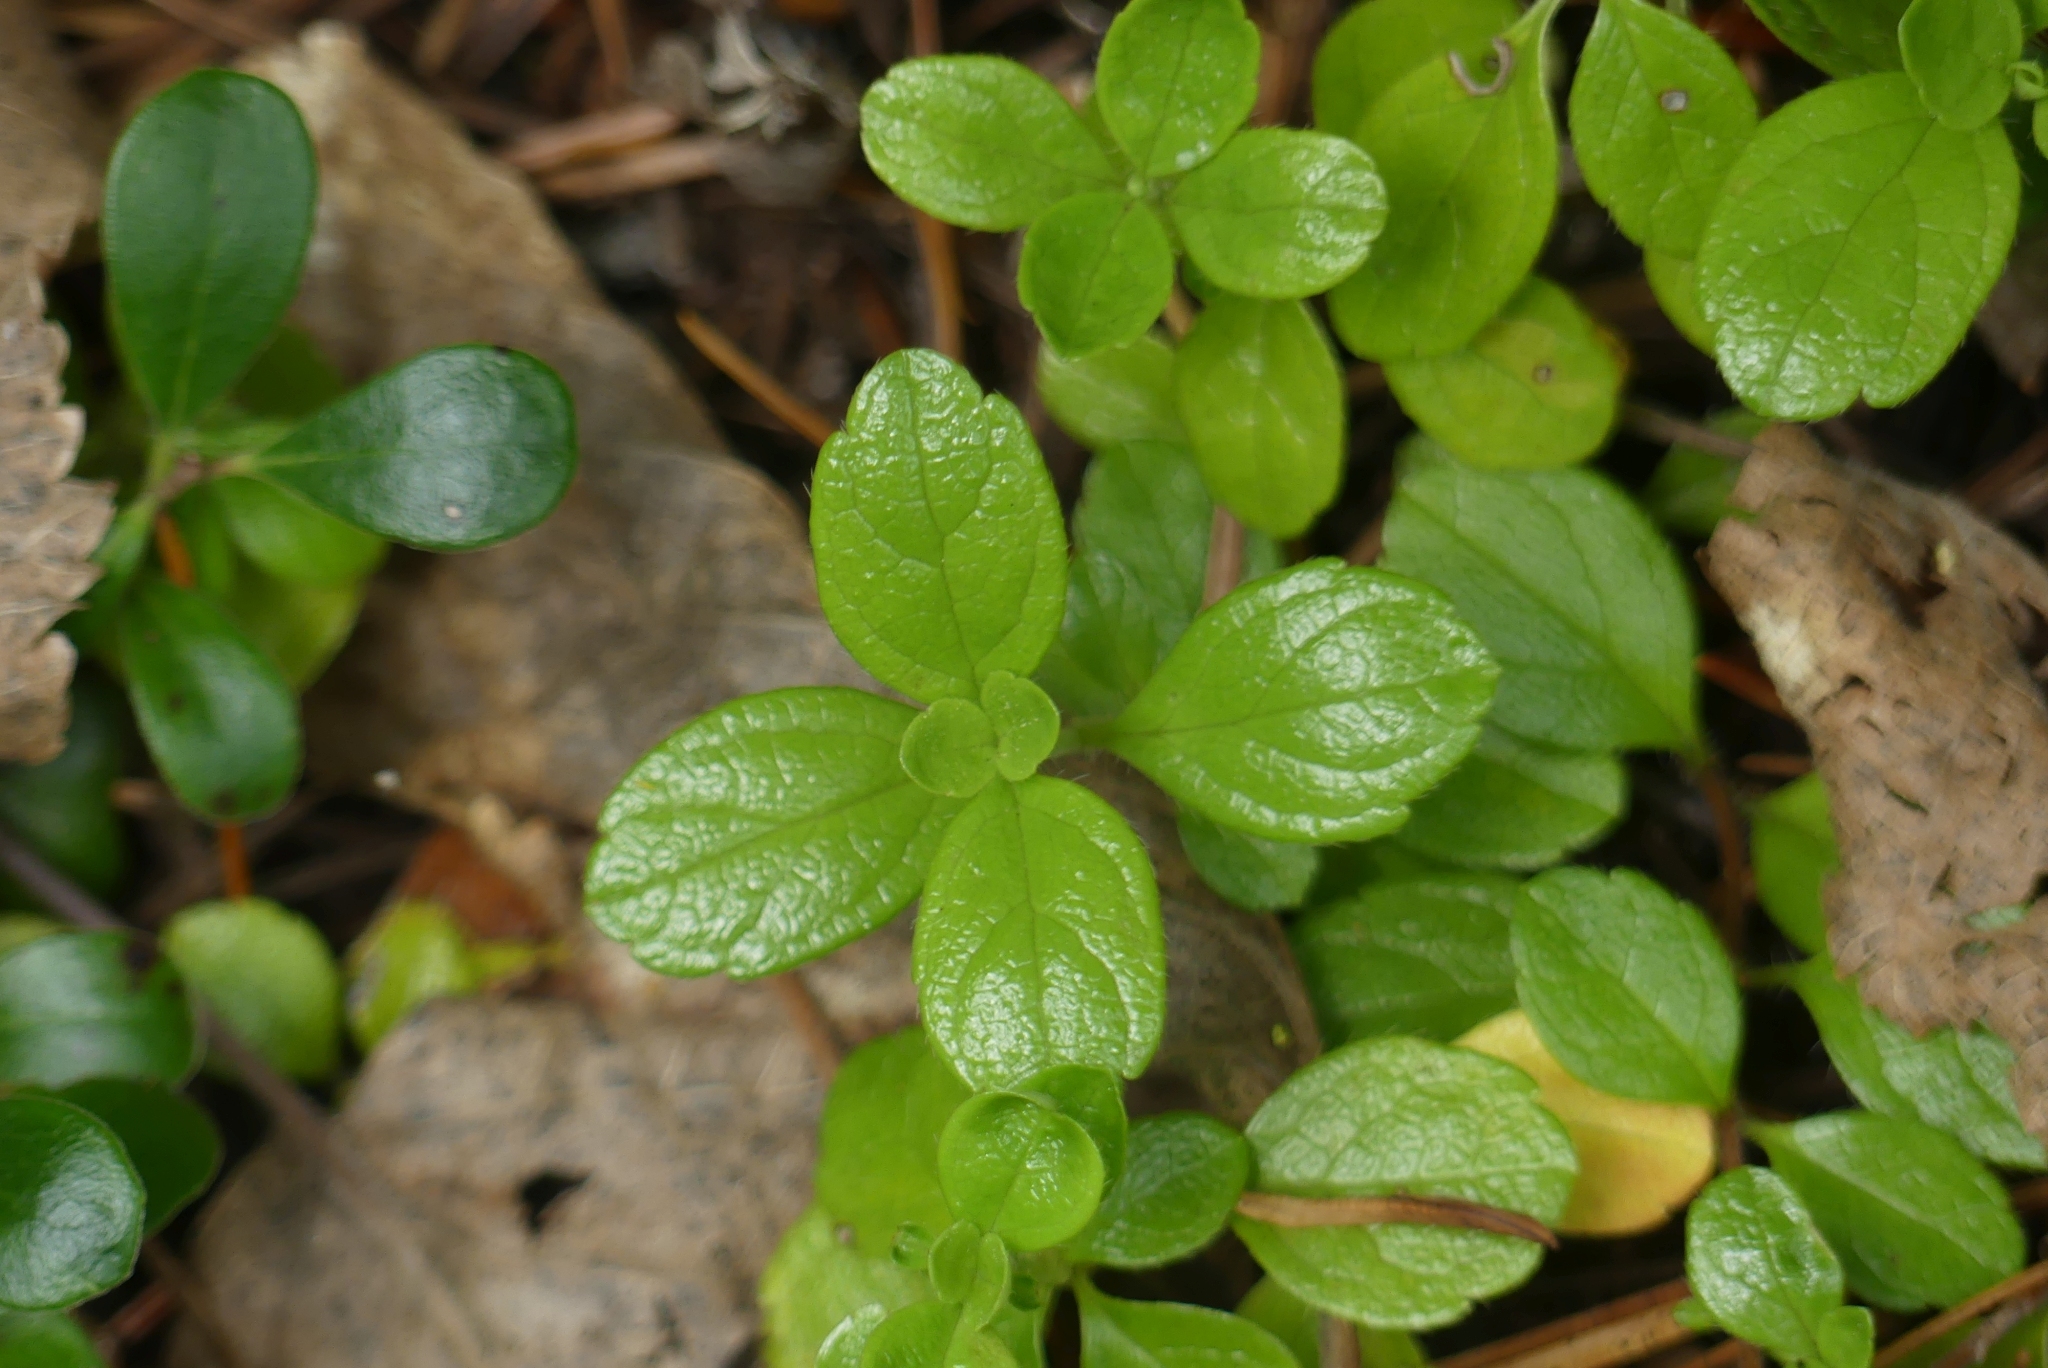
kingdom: Plantae
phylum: Tracheophyta
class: Magnoliopsida
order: Dipsacales
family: Caprifoliaceae
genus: Linnaea
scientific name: Linnaea borealis
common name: Twinflower
